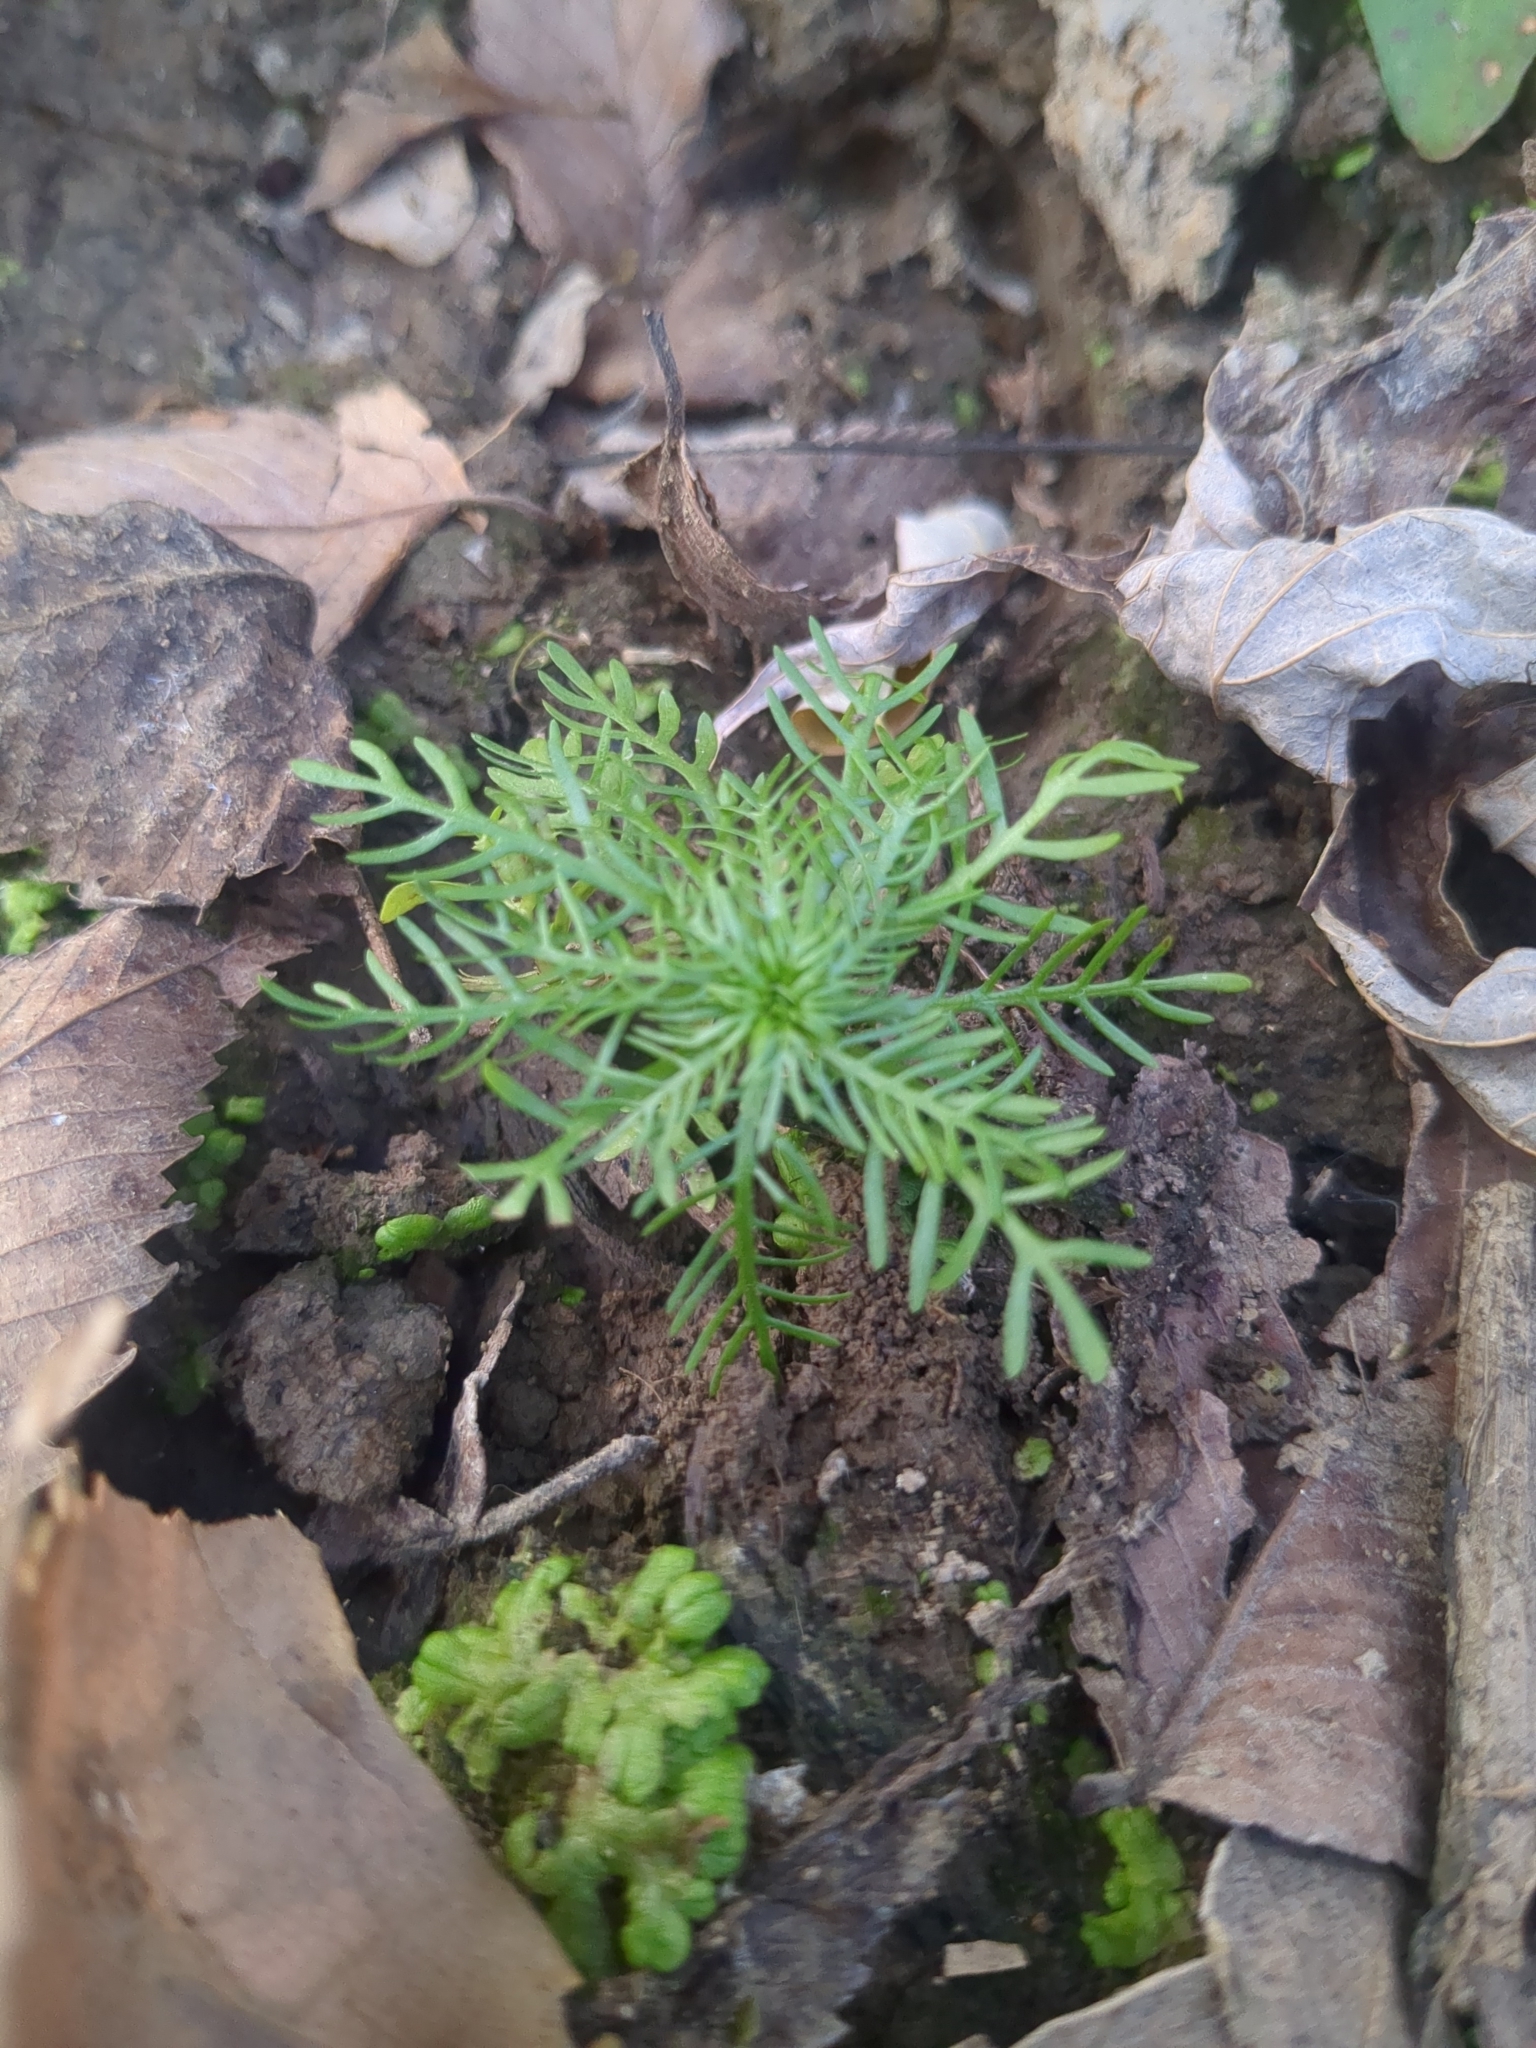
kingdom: Plantae
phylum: Tracheophyta
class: Magnoliopsida
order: Ericales
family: Primulaceae
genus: Hottonia
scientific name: Hottonia inflata
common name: American featherfoil
